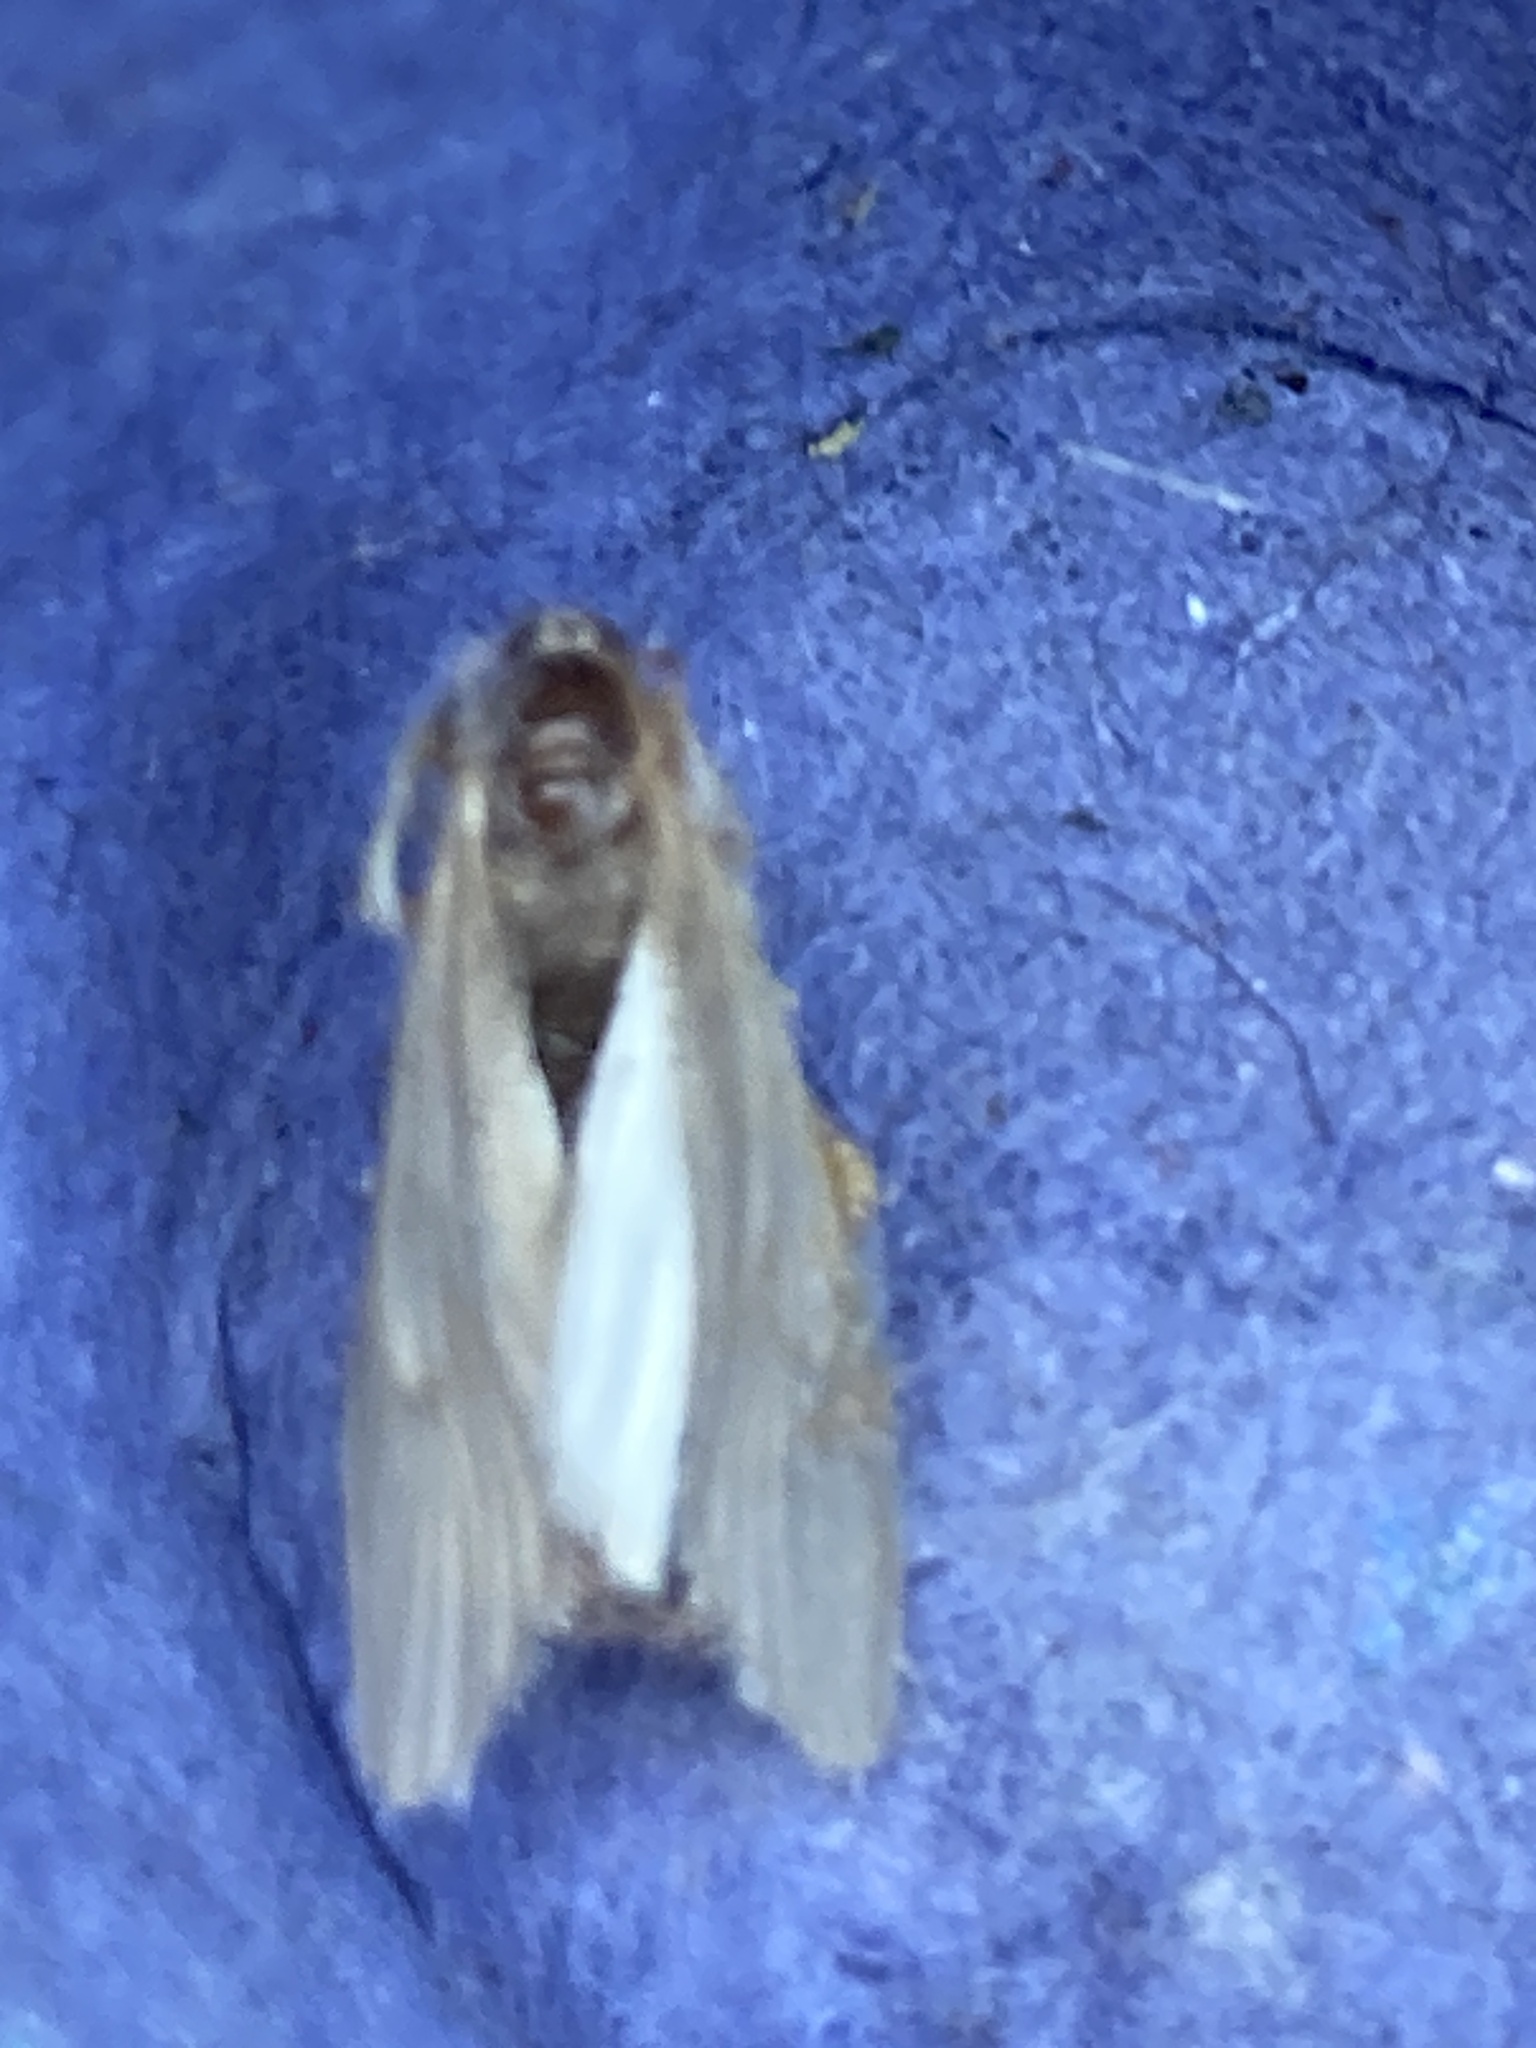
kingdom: Animalia
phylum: Arthropoda
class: Insecta
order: Lepidoptera
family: Crambidae
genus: Acentria
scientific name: Acentria ephemerella
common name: European water moth
